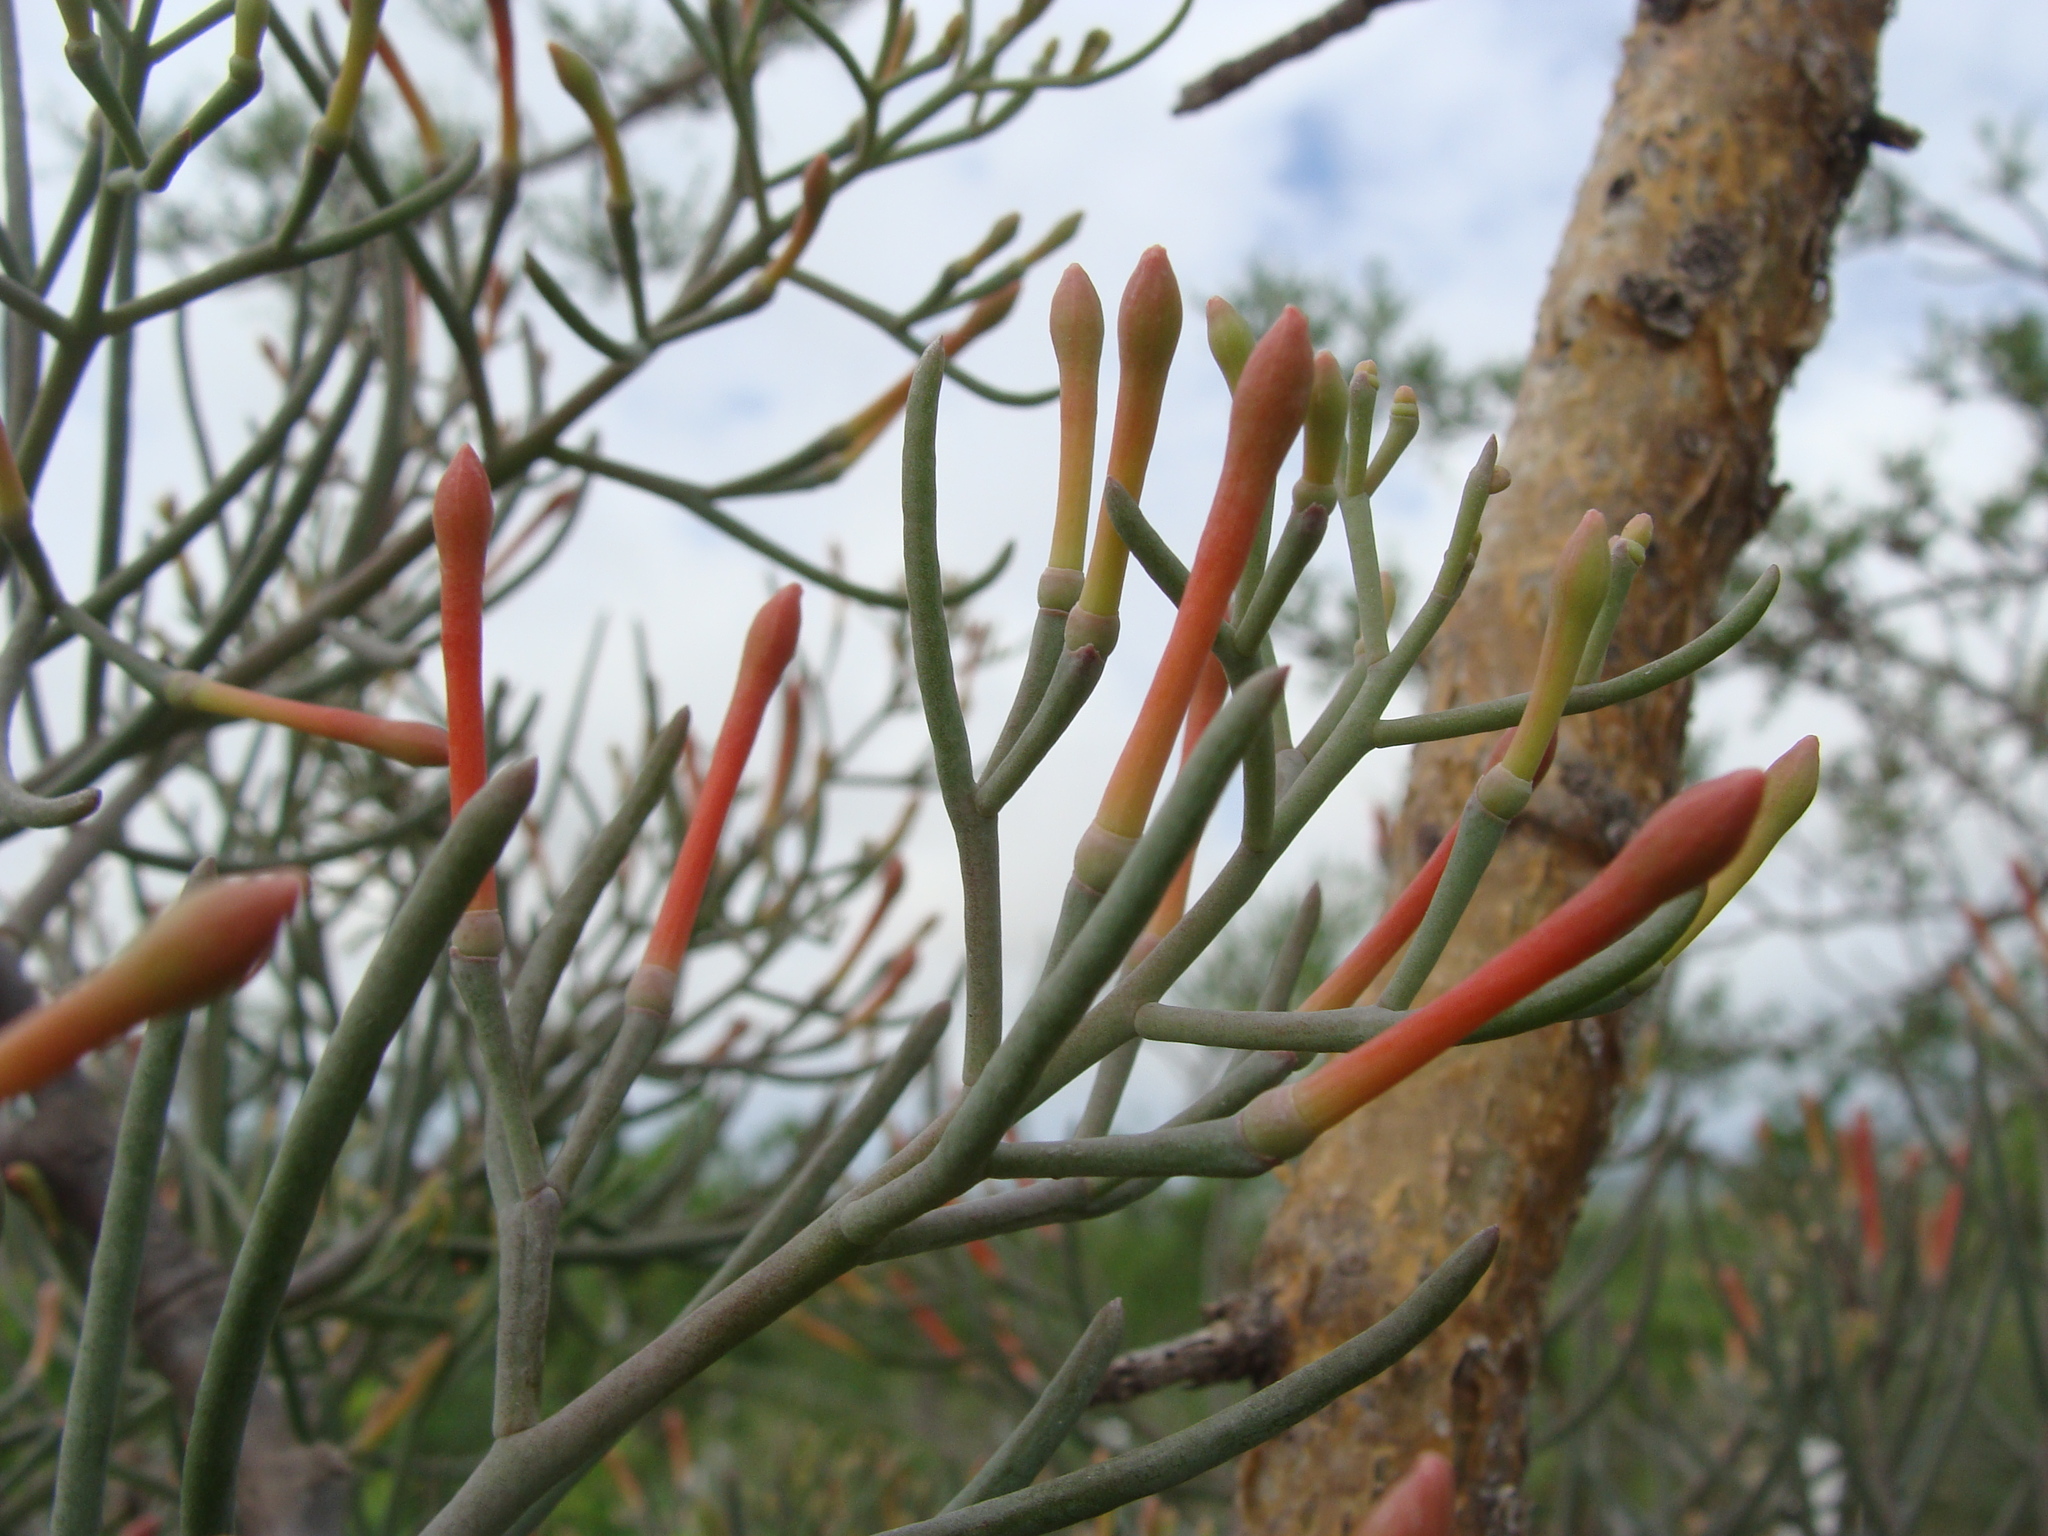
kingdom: Plantae
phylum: Tracheophyta
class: Magnoliopsida
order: Santalales
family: Loranthaceae
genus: Psittacanthus
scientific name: Psittacanthus sonorae
